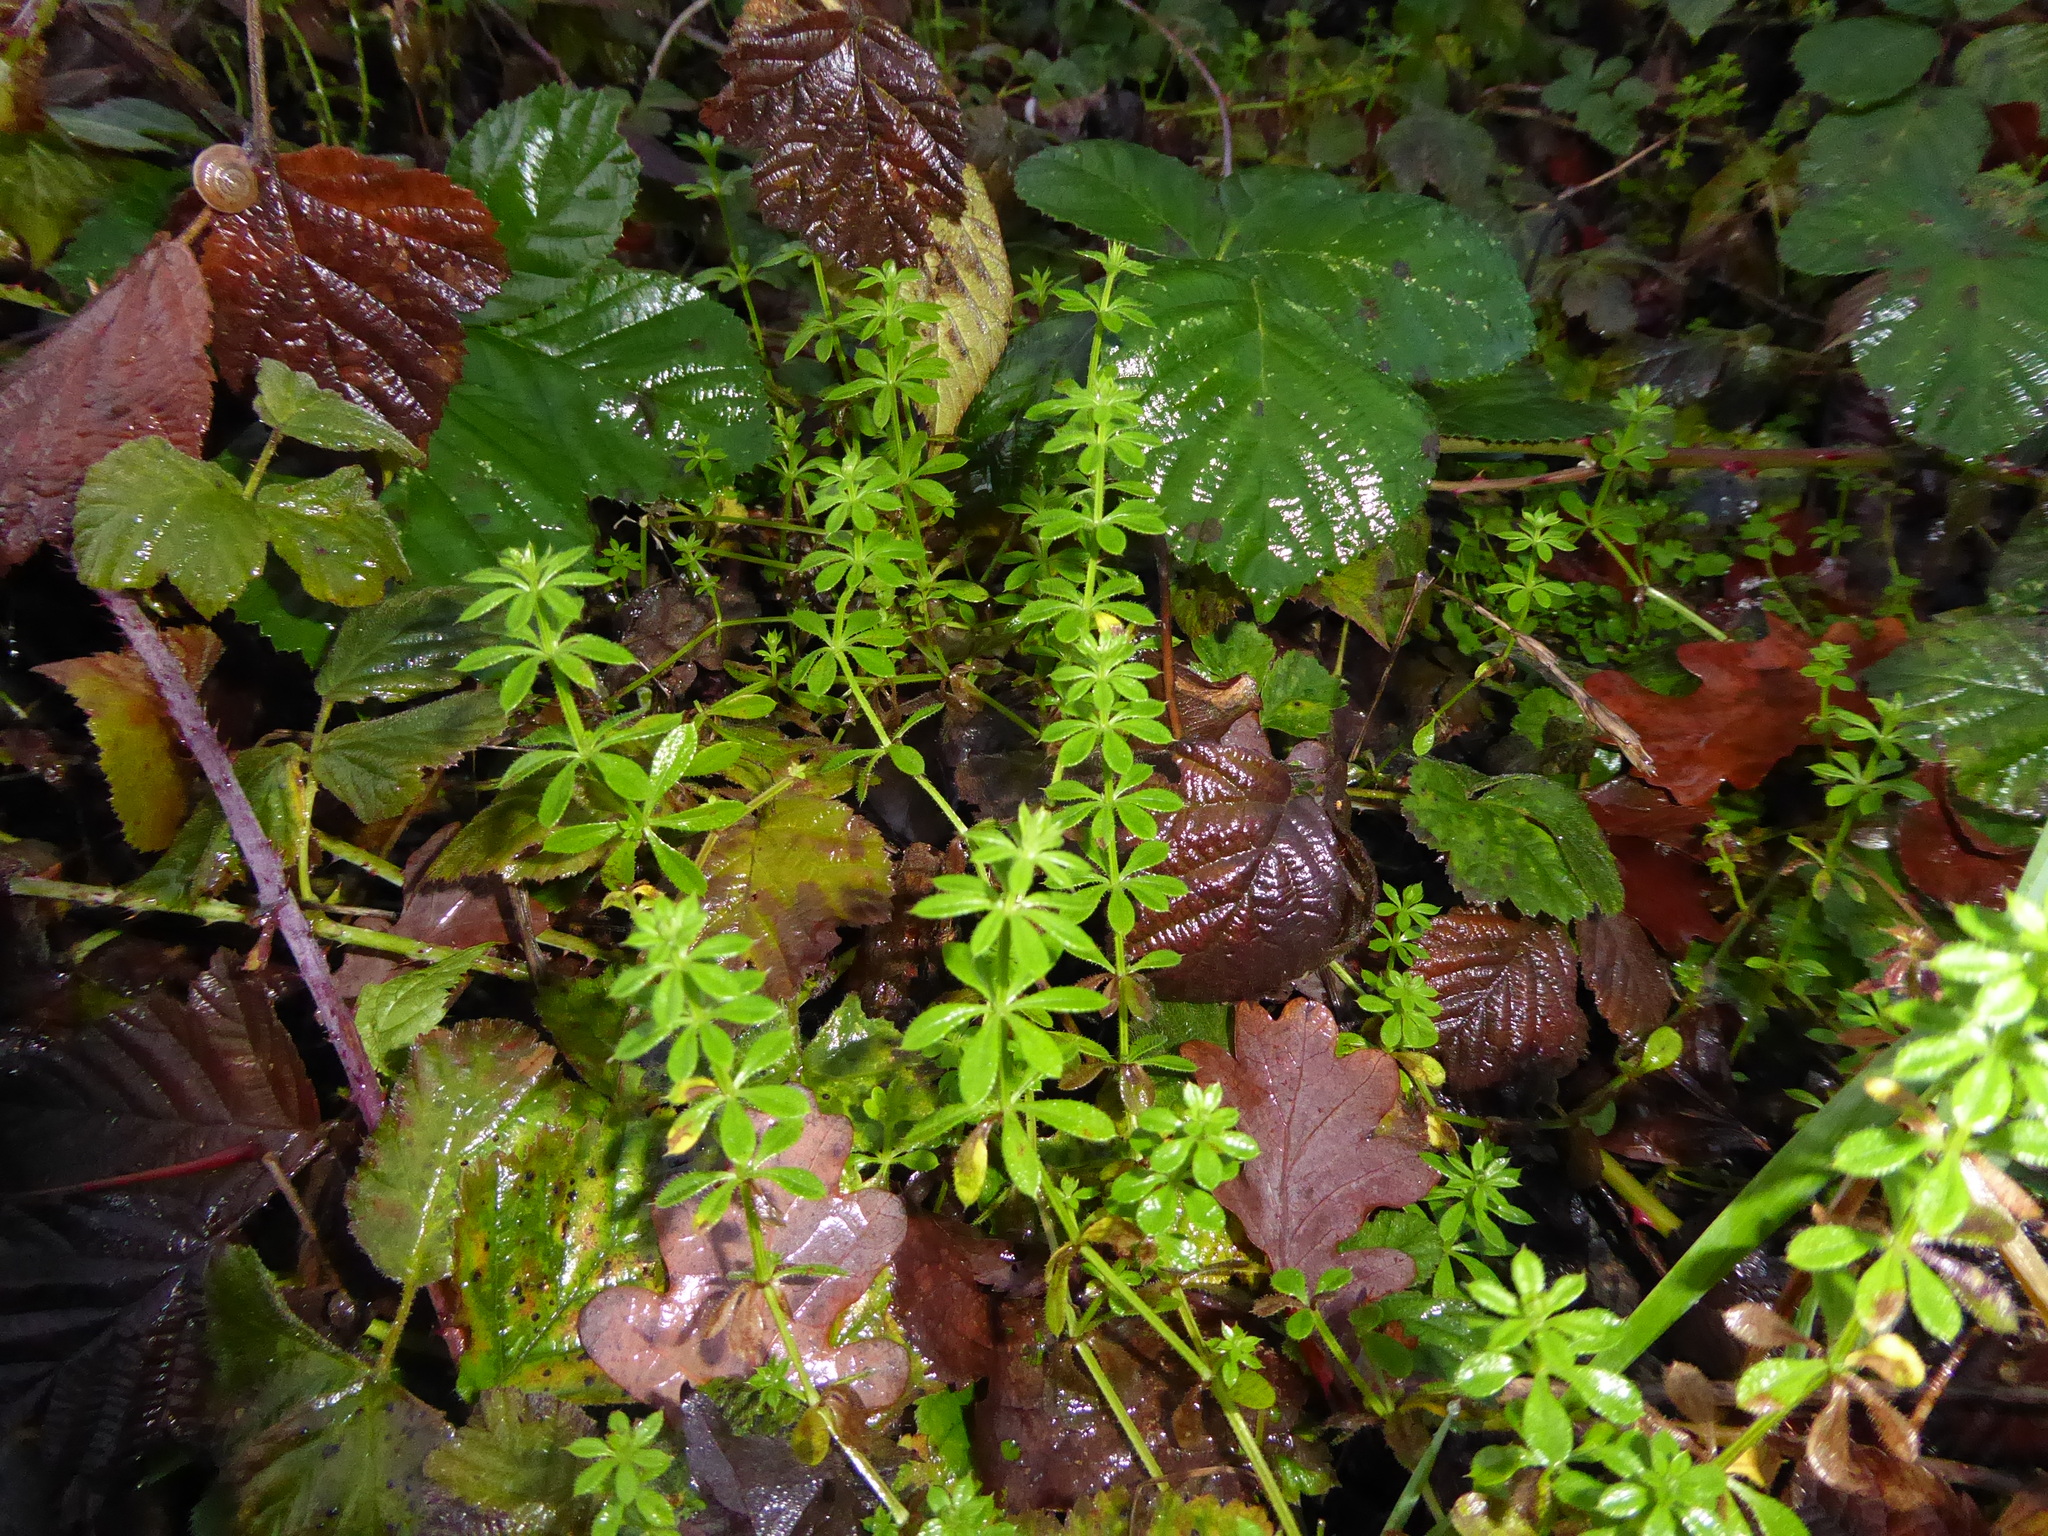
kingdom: Plantae
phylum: Tracheophyta
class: Magnoliopsida
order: Gentianales
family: Rubiaceae
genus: Galium
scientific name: Galium aparine
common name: Cleavers
